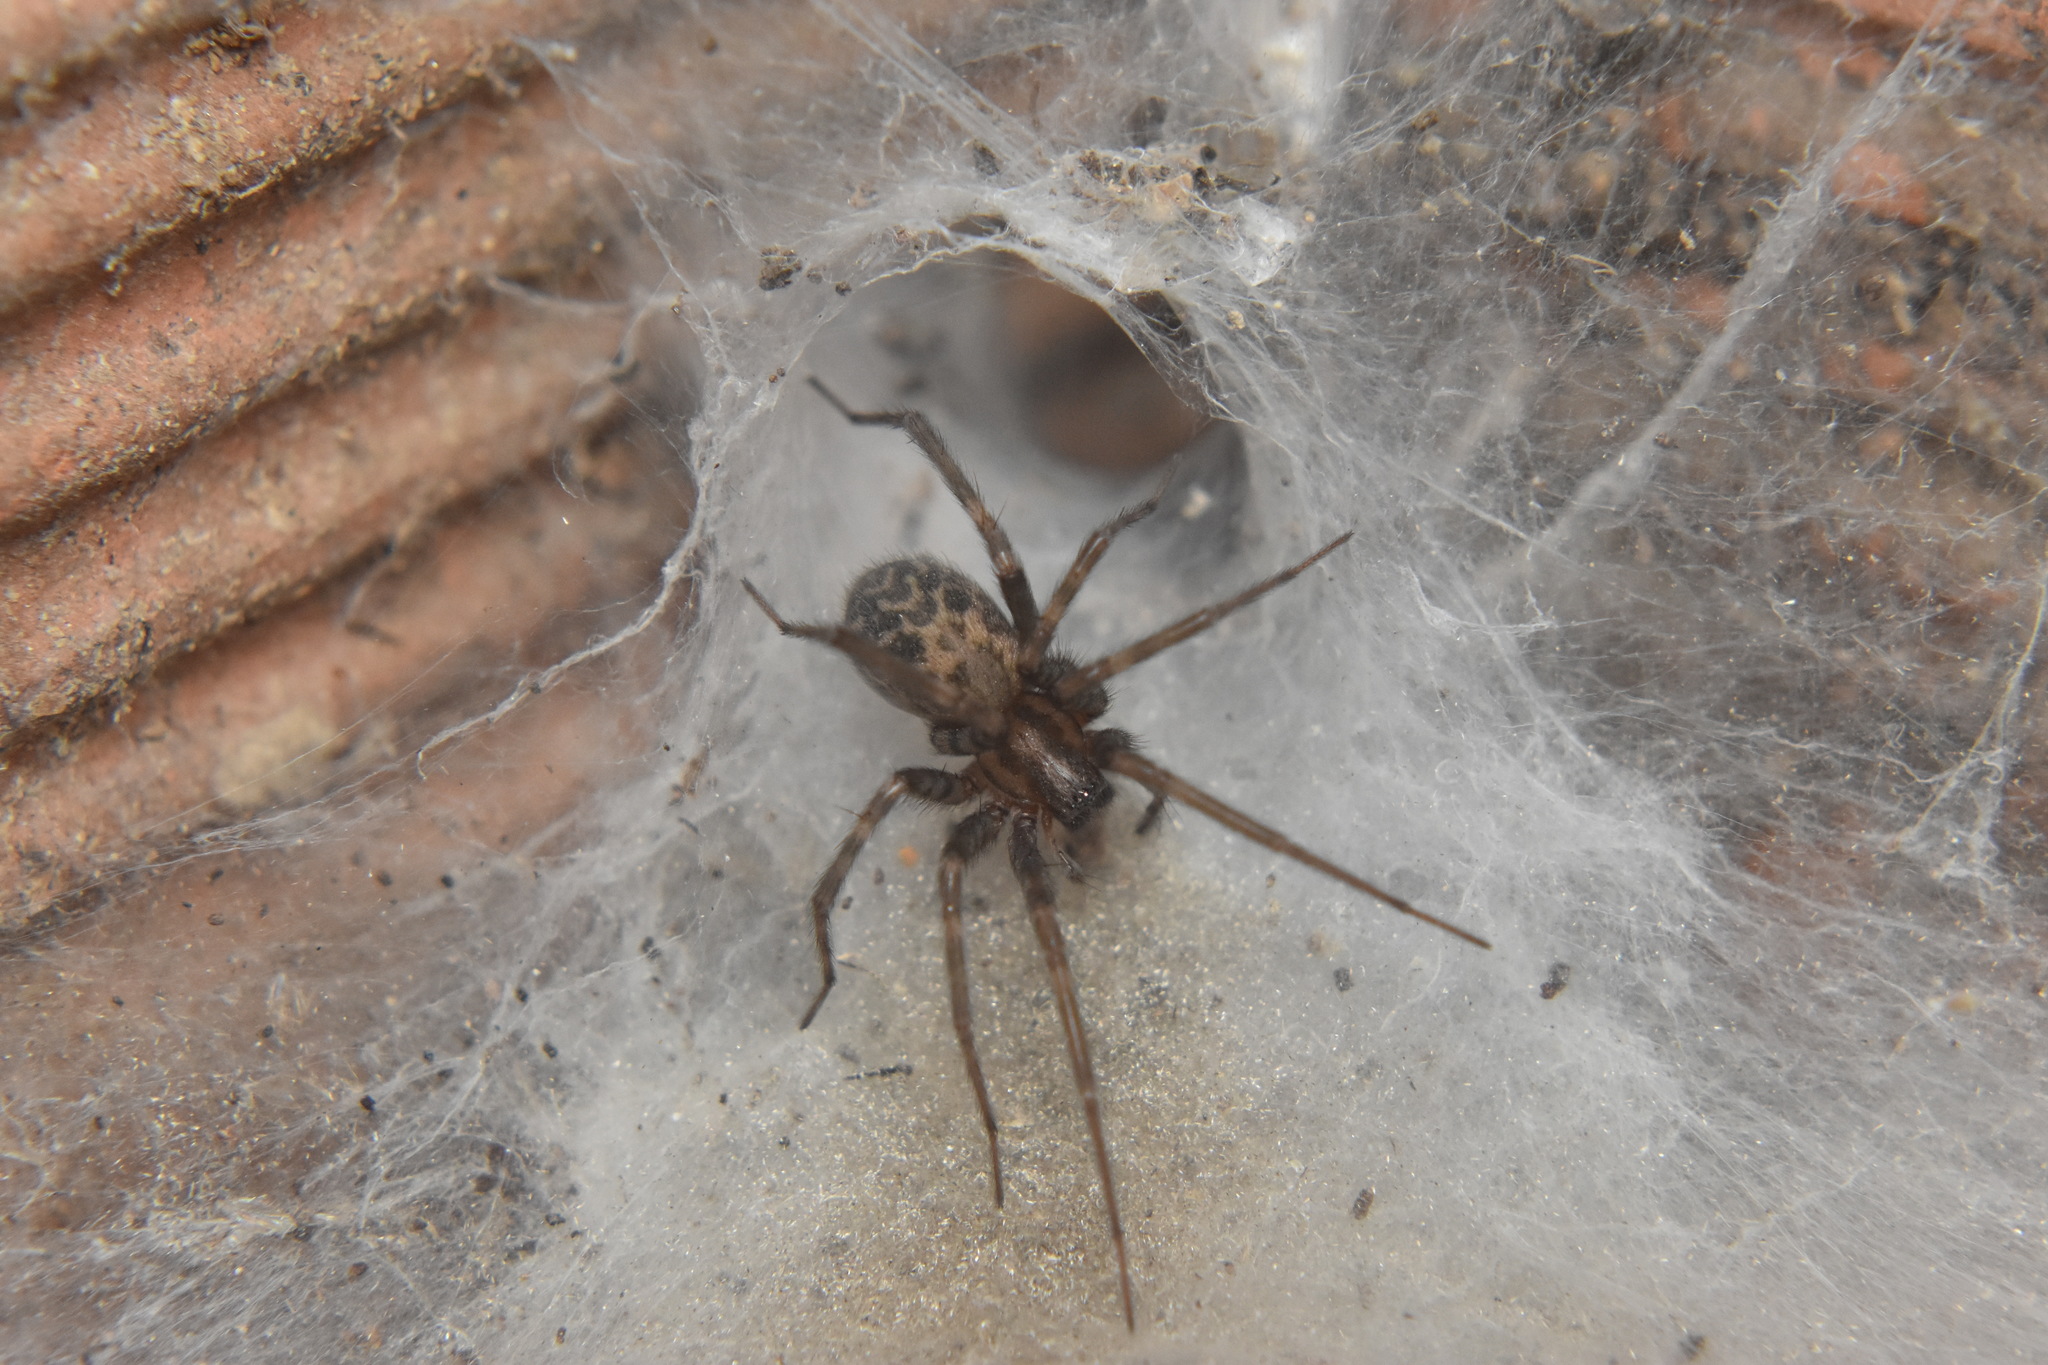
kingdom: Animalia
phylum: Arthropoda
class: Arachnida
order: Araneae
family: Agelenidae
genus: Tegenaria
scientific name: Tegenaria domestica
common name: Barn funnel weaver
